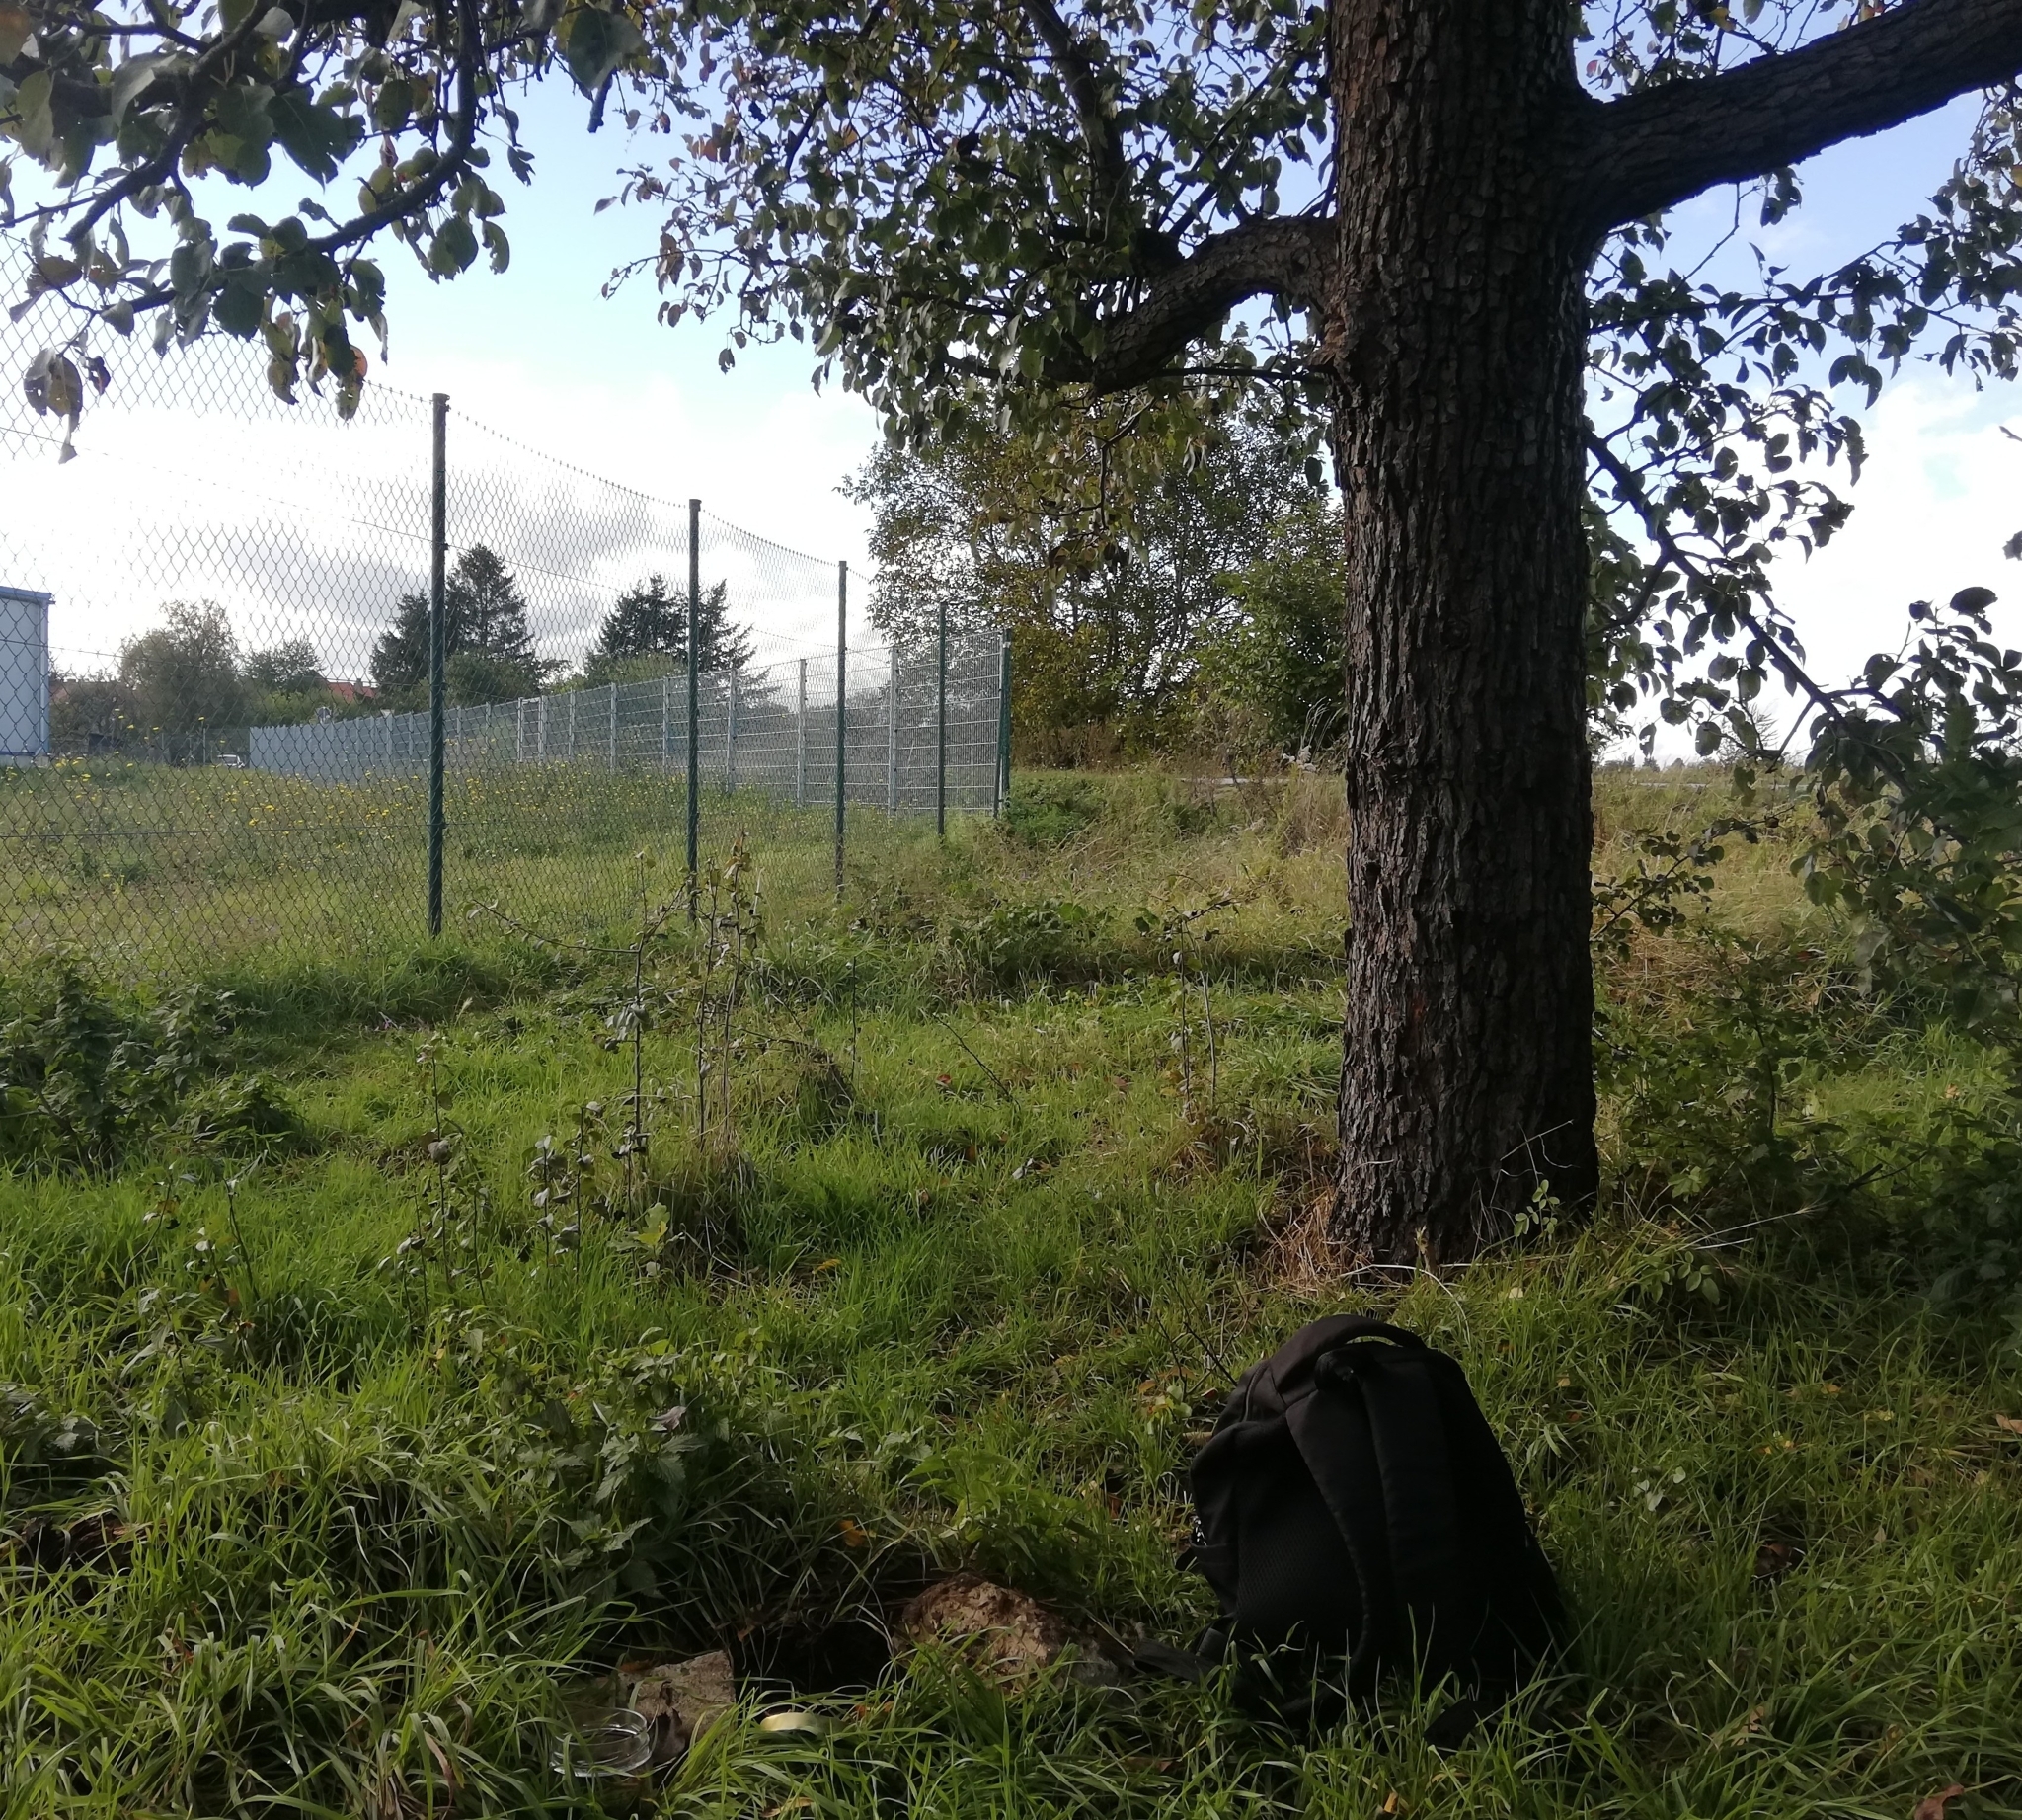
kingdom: Animalia
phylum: Mollusca
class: Gastropoda
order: Stylommatophora
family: Limacidae
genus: Ambigolimax
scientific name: Ambigolimax valentianus
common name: Greenhouse slug
